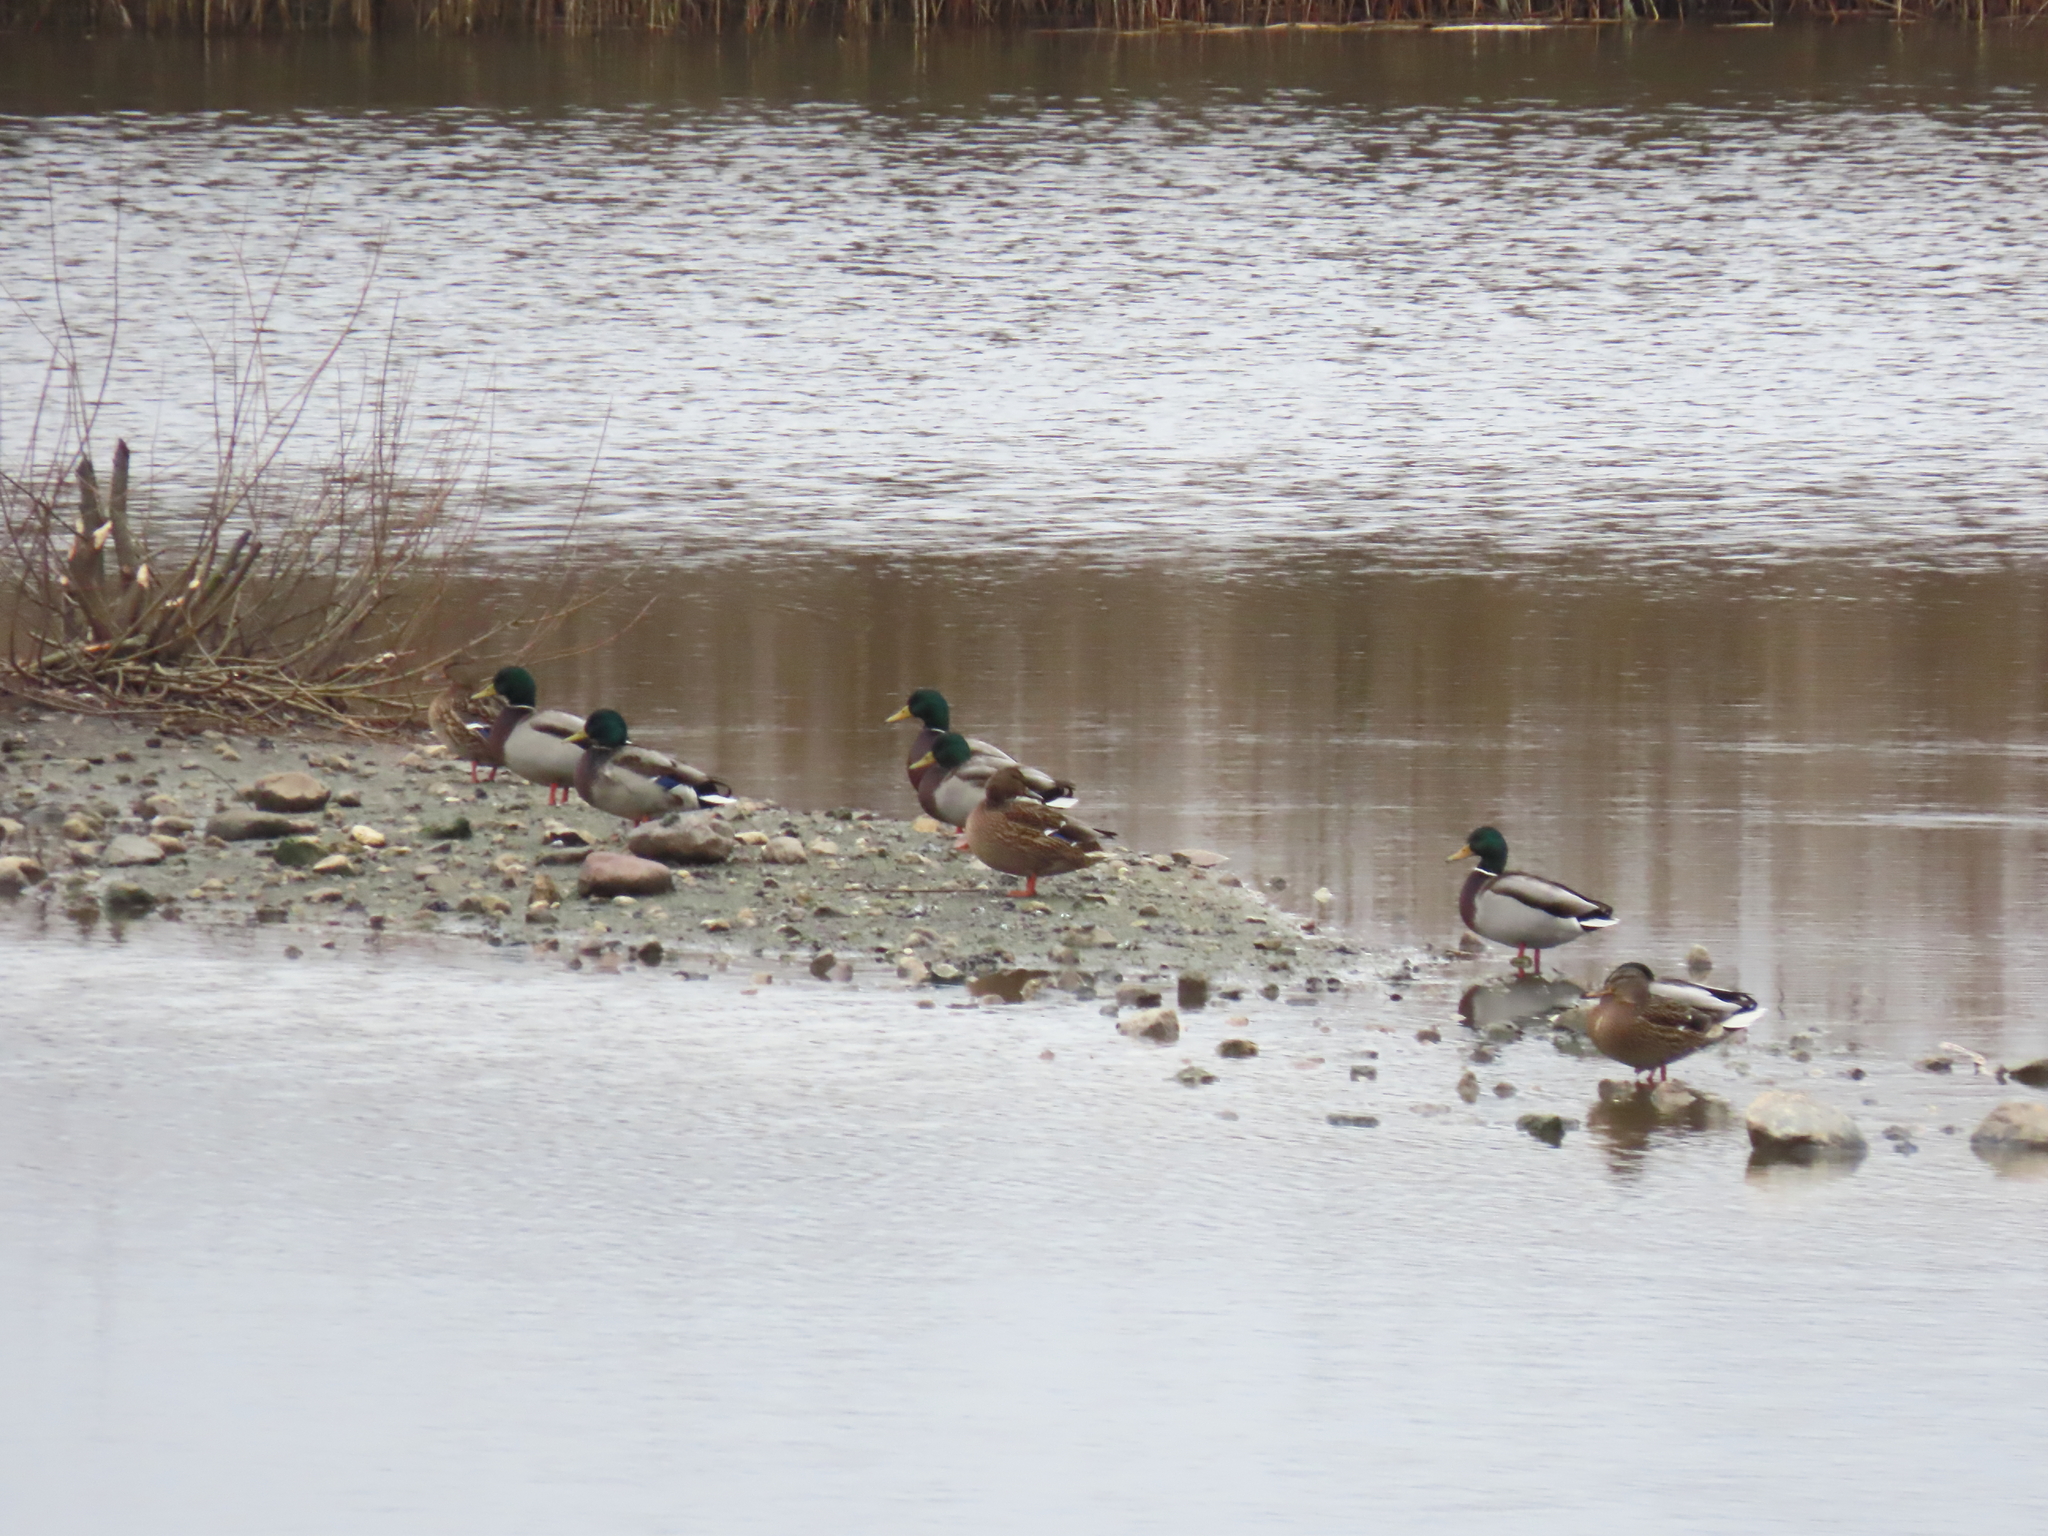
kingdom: Animalia
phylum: Chordata
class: Aves
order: Anseriformes
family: Anatidae
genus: Anas
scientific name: Anas platyrhynchos
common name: Mallard
